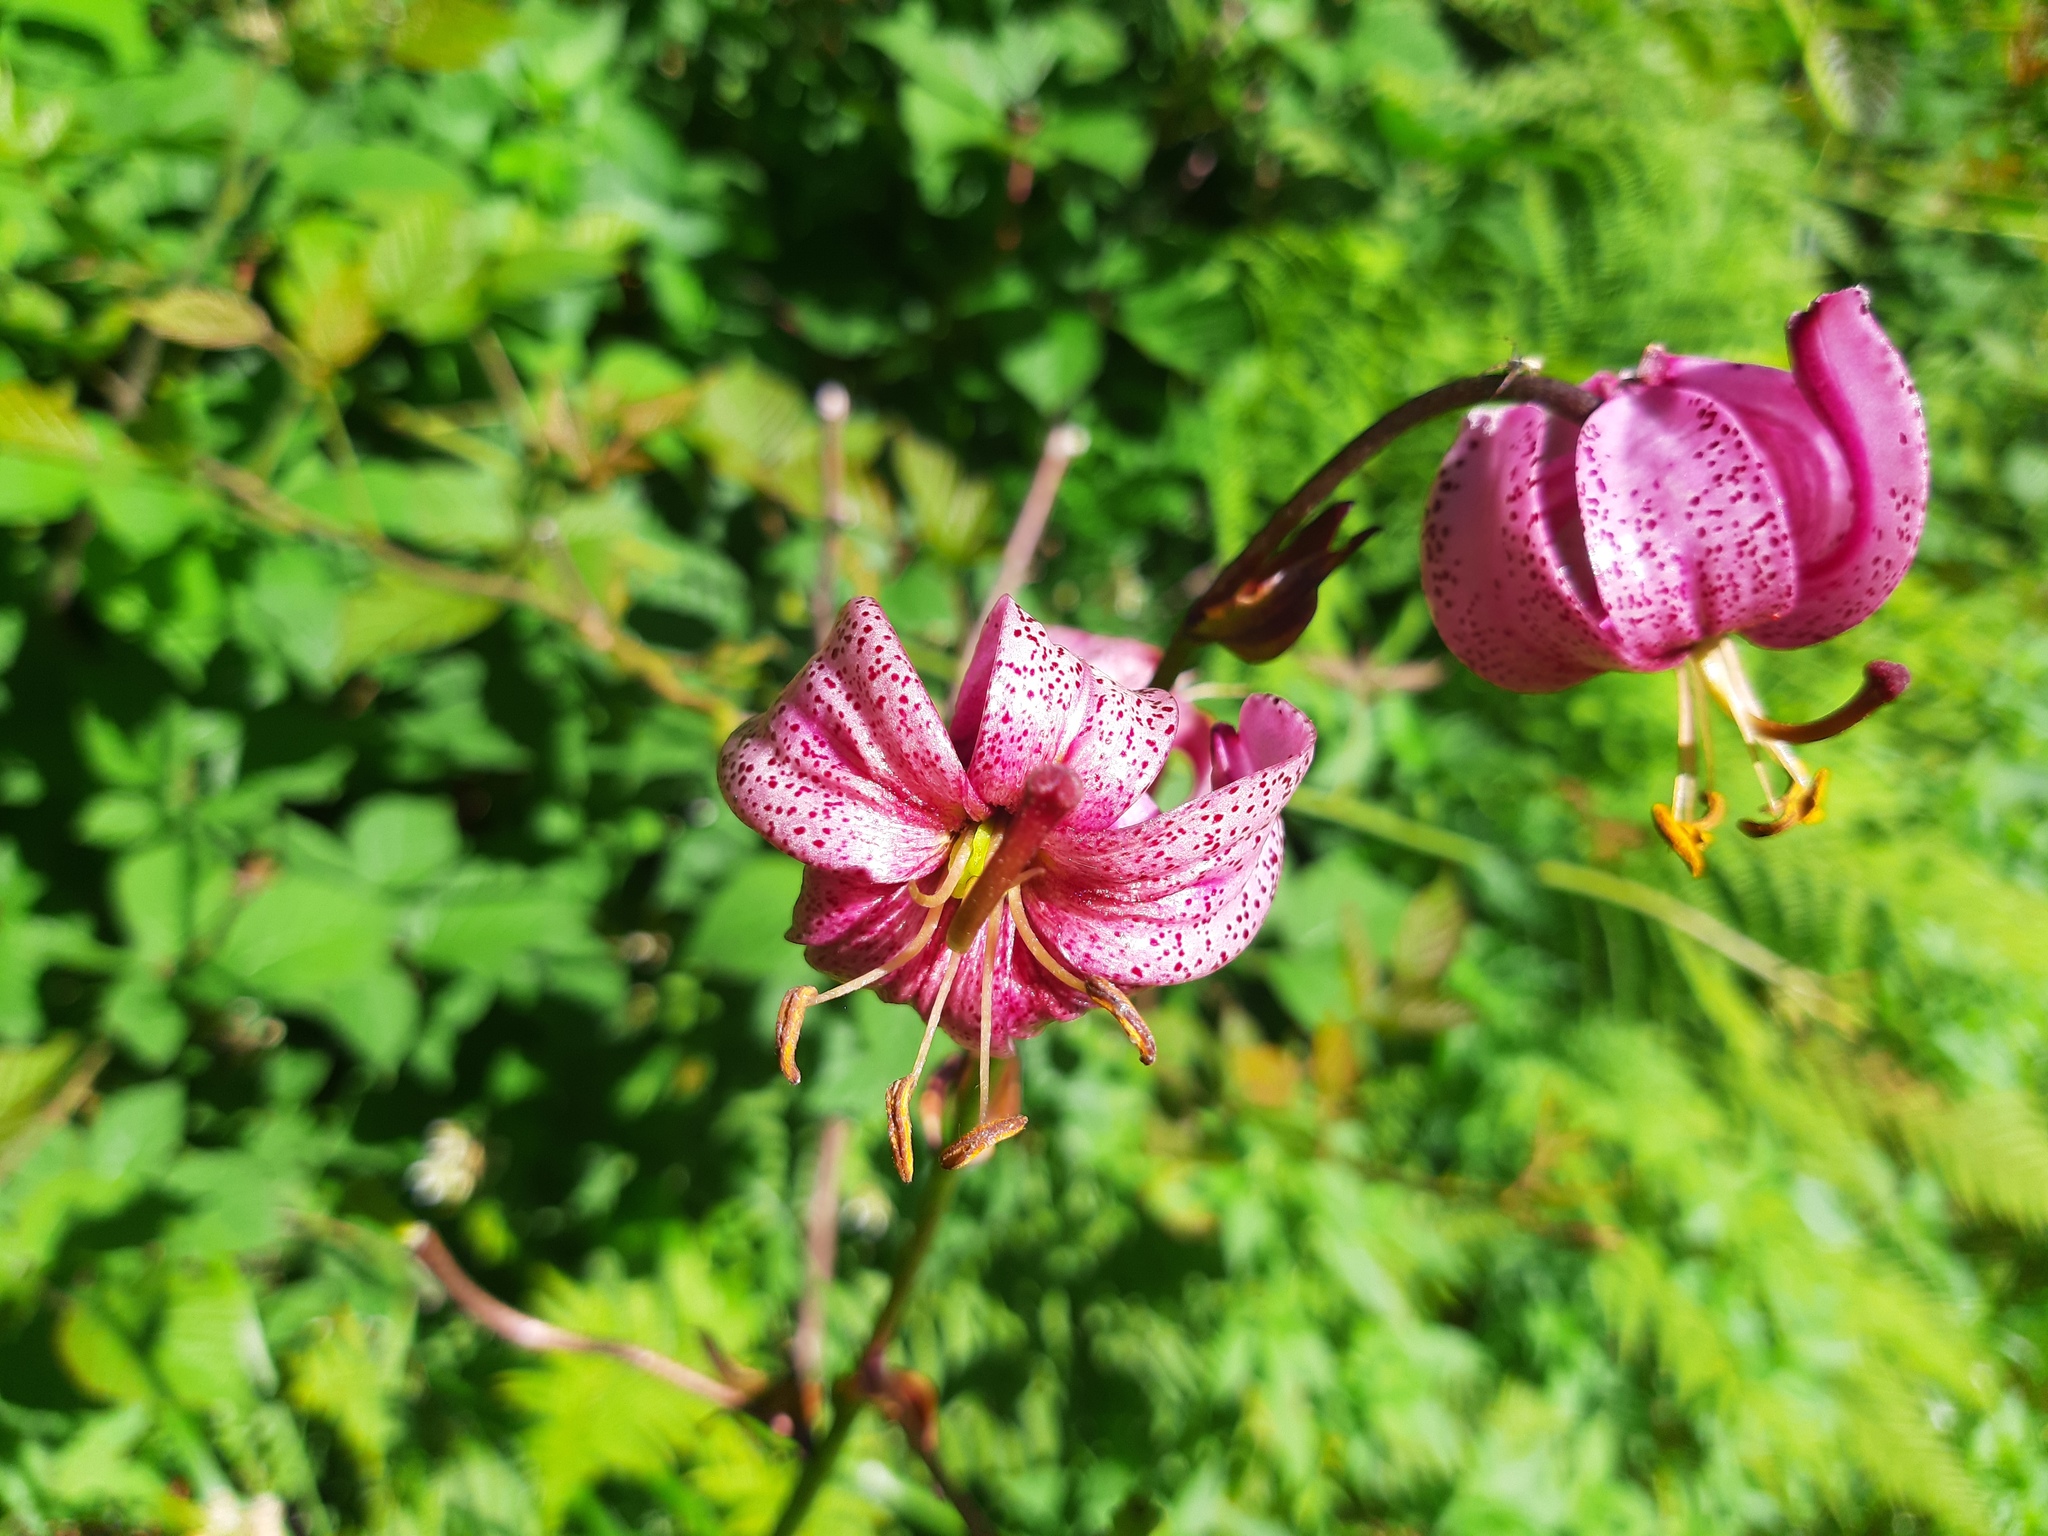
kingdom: Plantae
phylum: Tracheophyta
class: Liliopsida
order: Liliales
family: Liliaceae
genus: Lilium
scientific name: Lilium martagon
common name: Martagon lily
